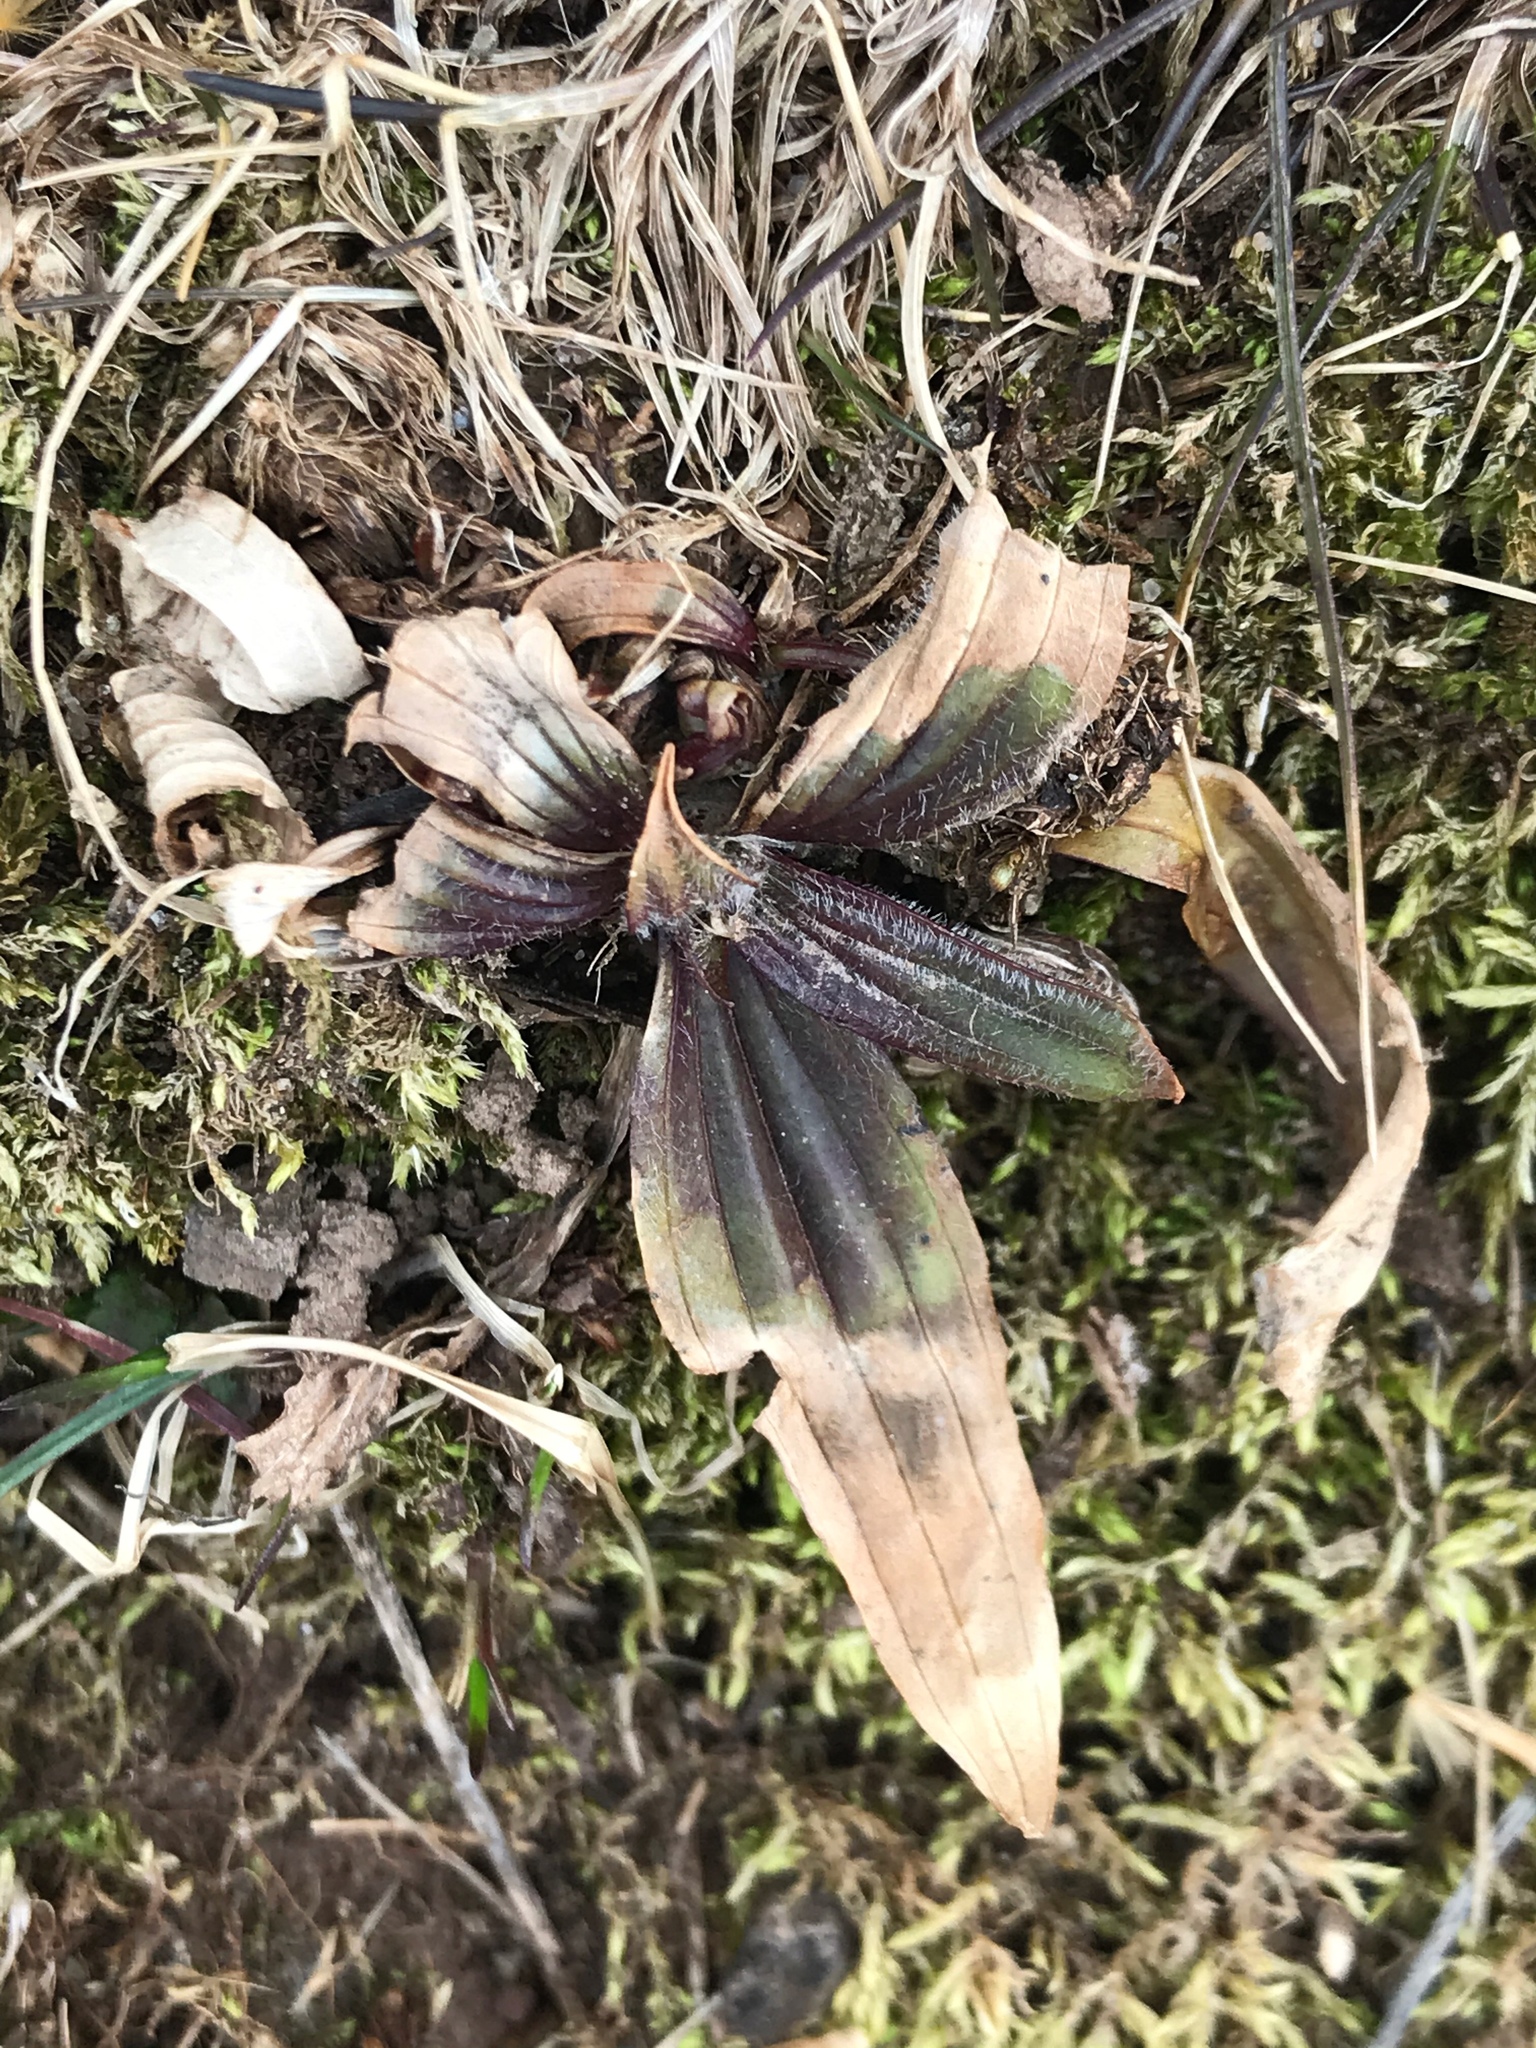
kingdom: Plantae
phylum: Tracheophyta
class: Magnoliopsida
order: Lamiales
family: Plantaginaceae
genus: Plantago
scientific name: Plantago lanceolata
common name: Ribwort plantain
